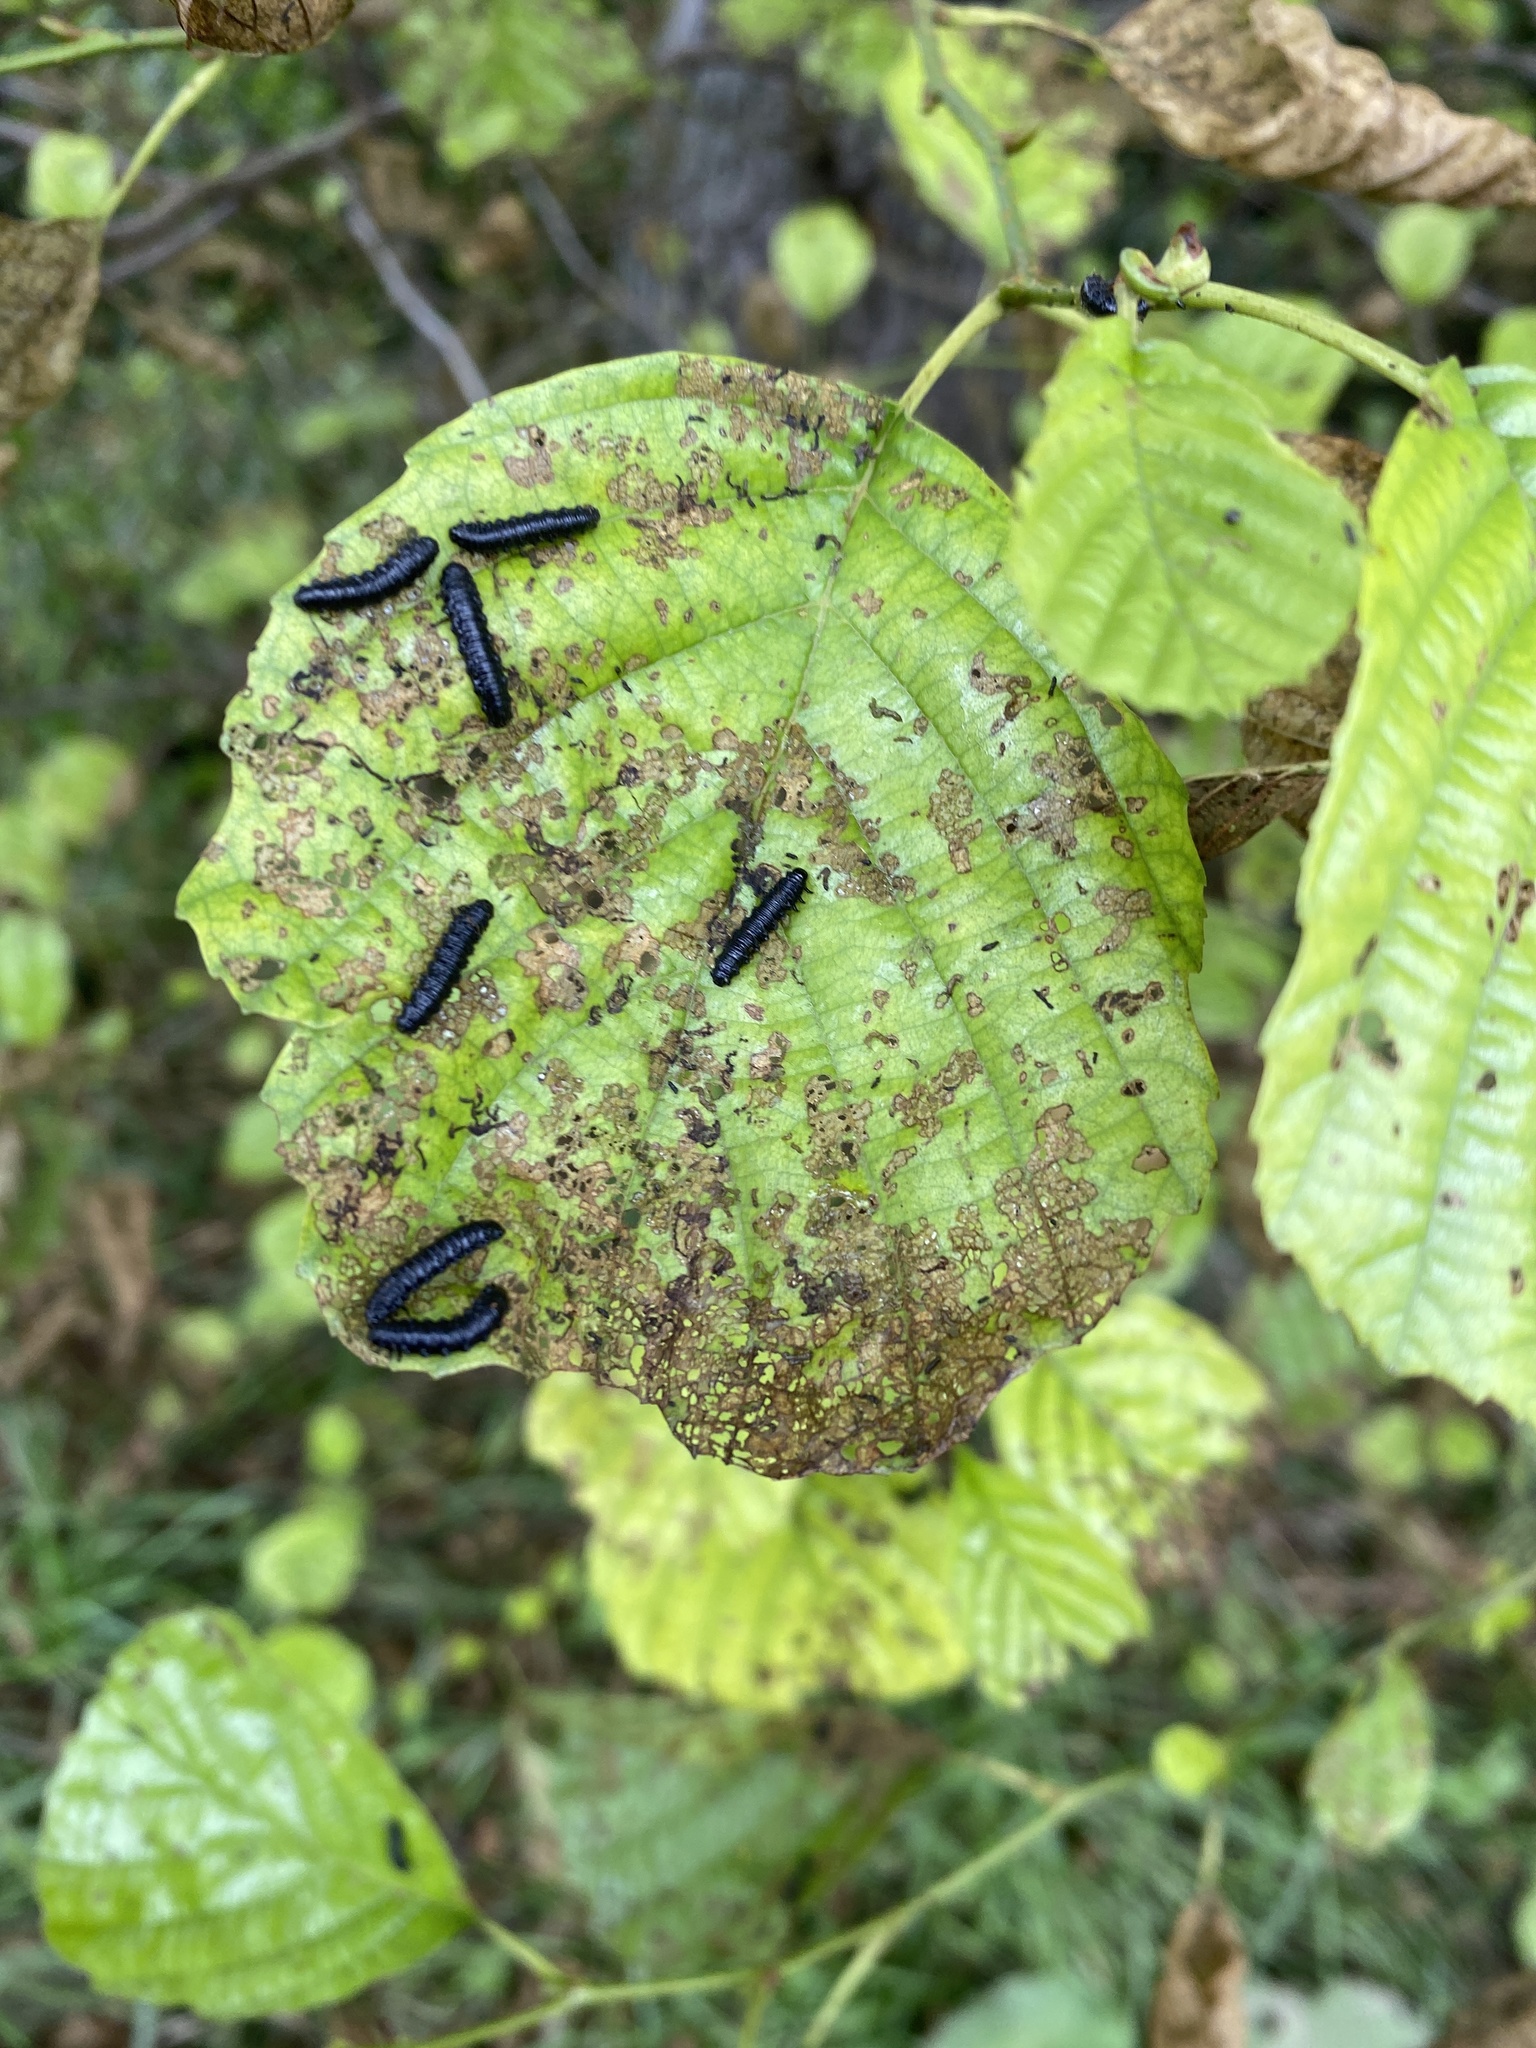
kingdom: Animalia
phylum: Arthropoda
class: Insecta
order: Coleoptera
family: Chrysomelidae
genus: Agelastica
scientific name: Agelastica alni
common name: Alder leaf beetle
